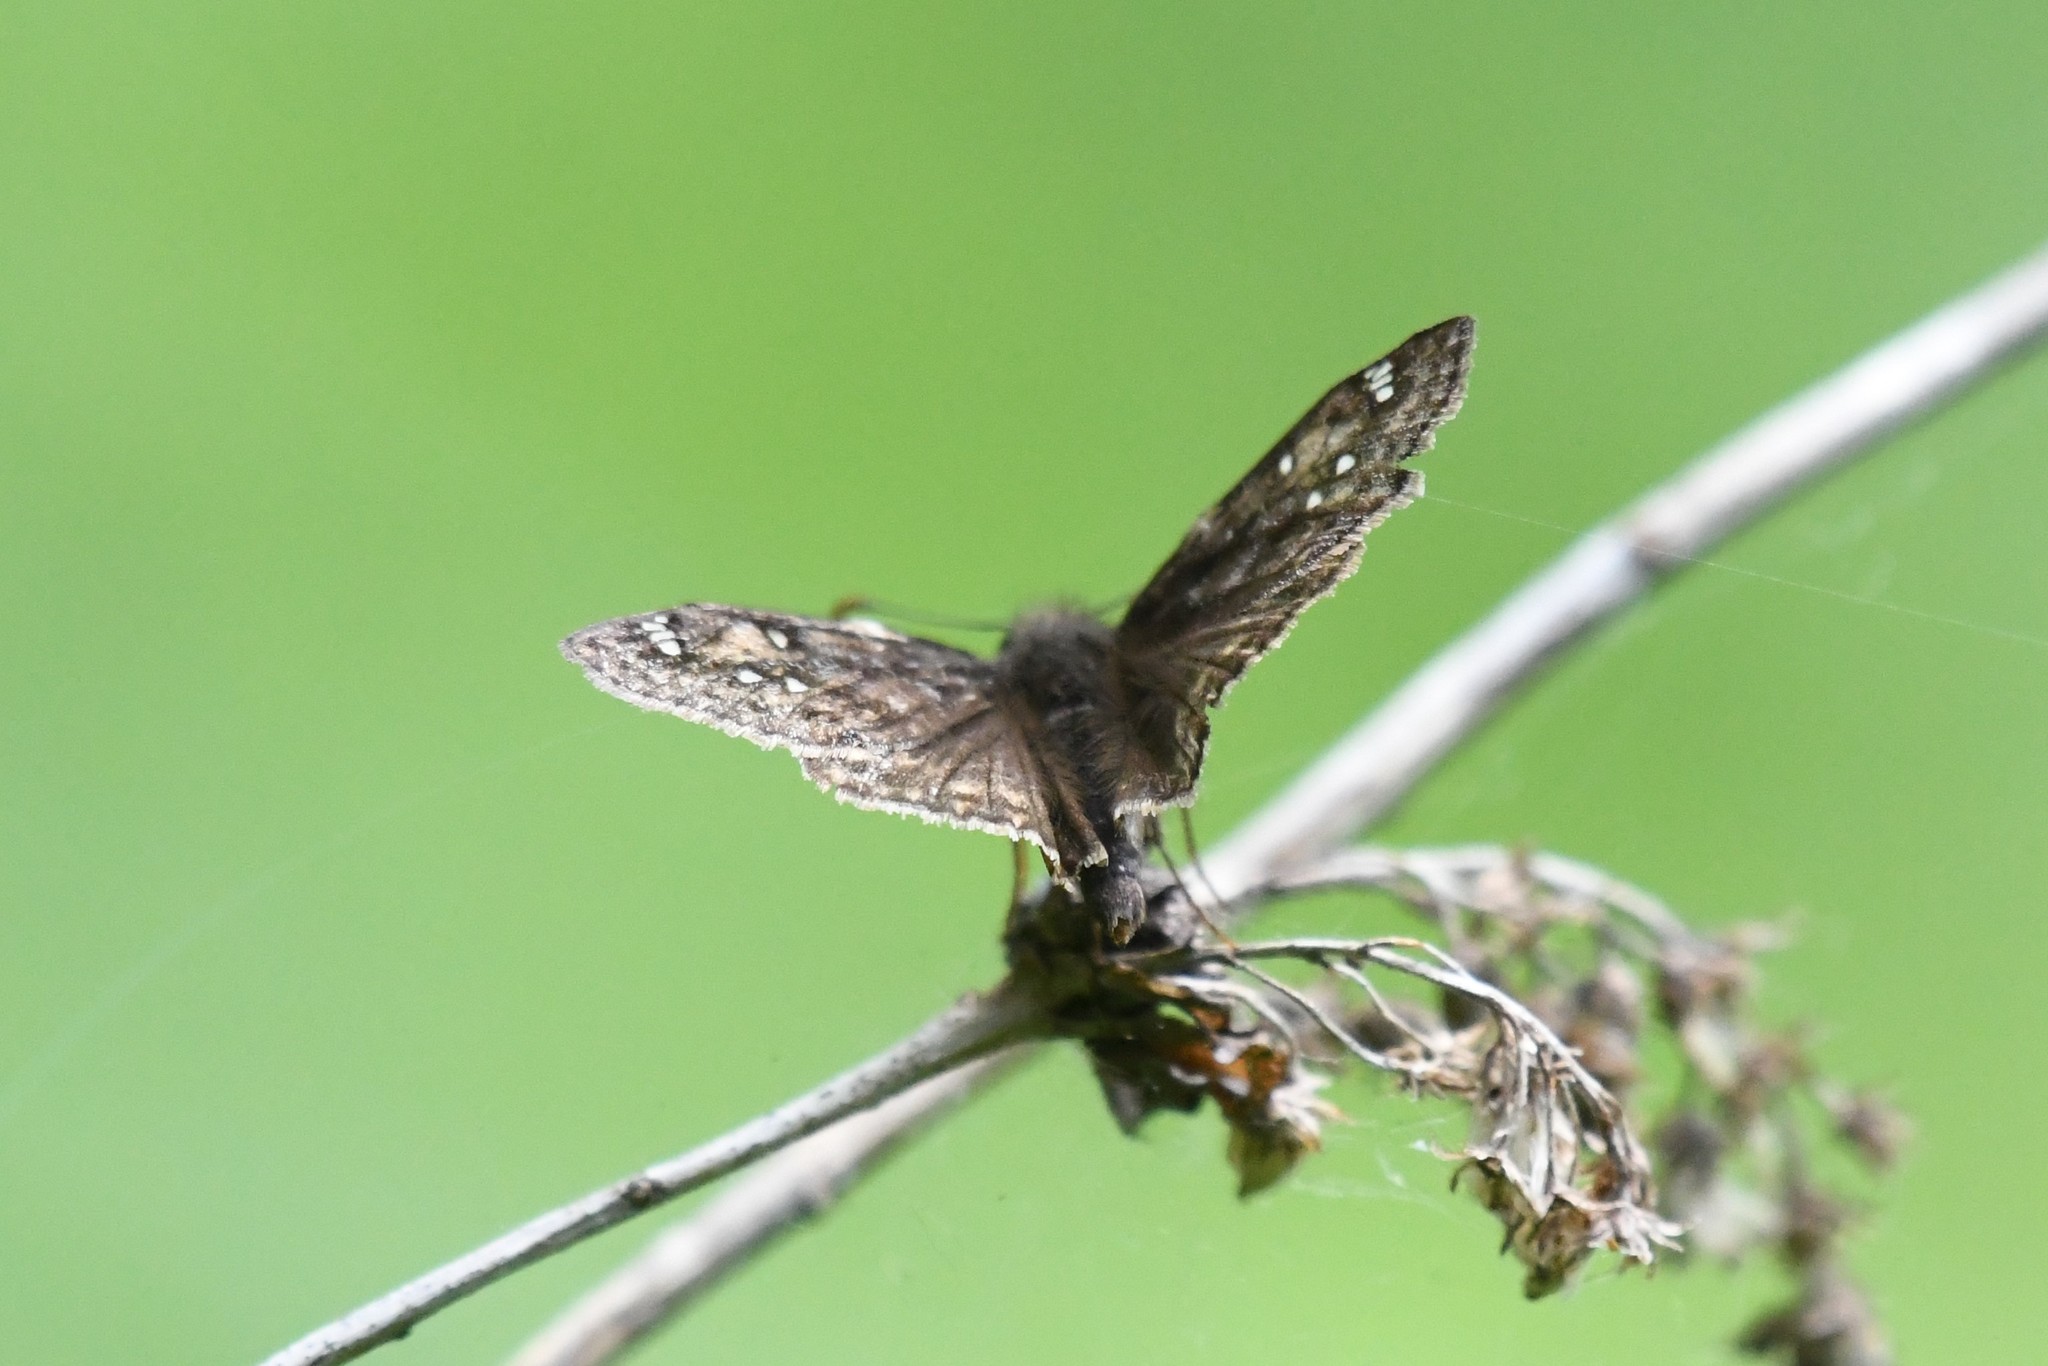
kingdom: Animalia
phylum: Arthropoda
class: Insecta
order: Lepidoptera
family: Hesperiidae
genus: Erynnis
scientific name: Erynnis juvenalis
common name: Juvenal's duskywing
